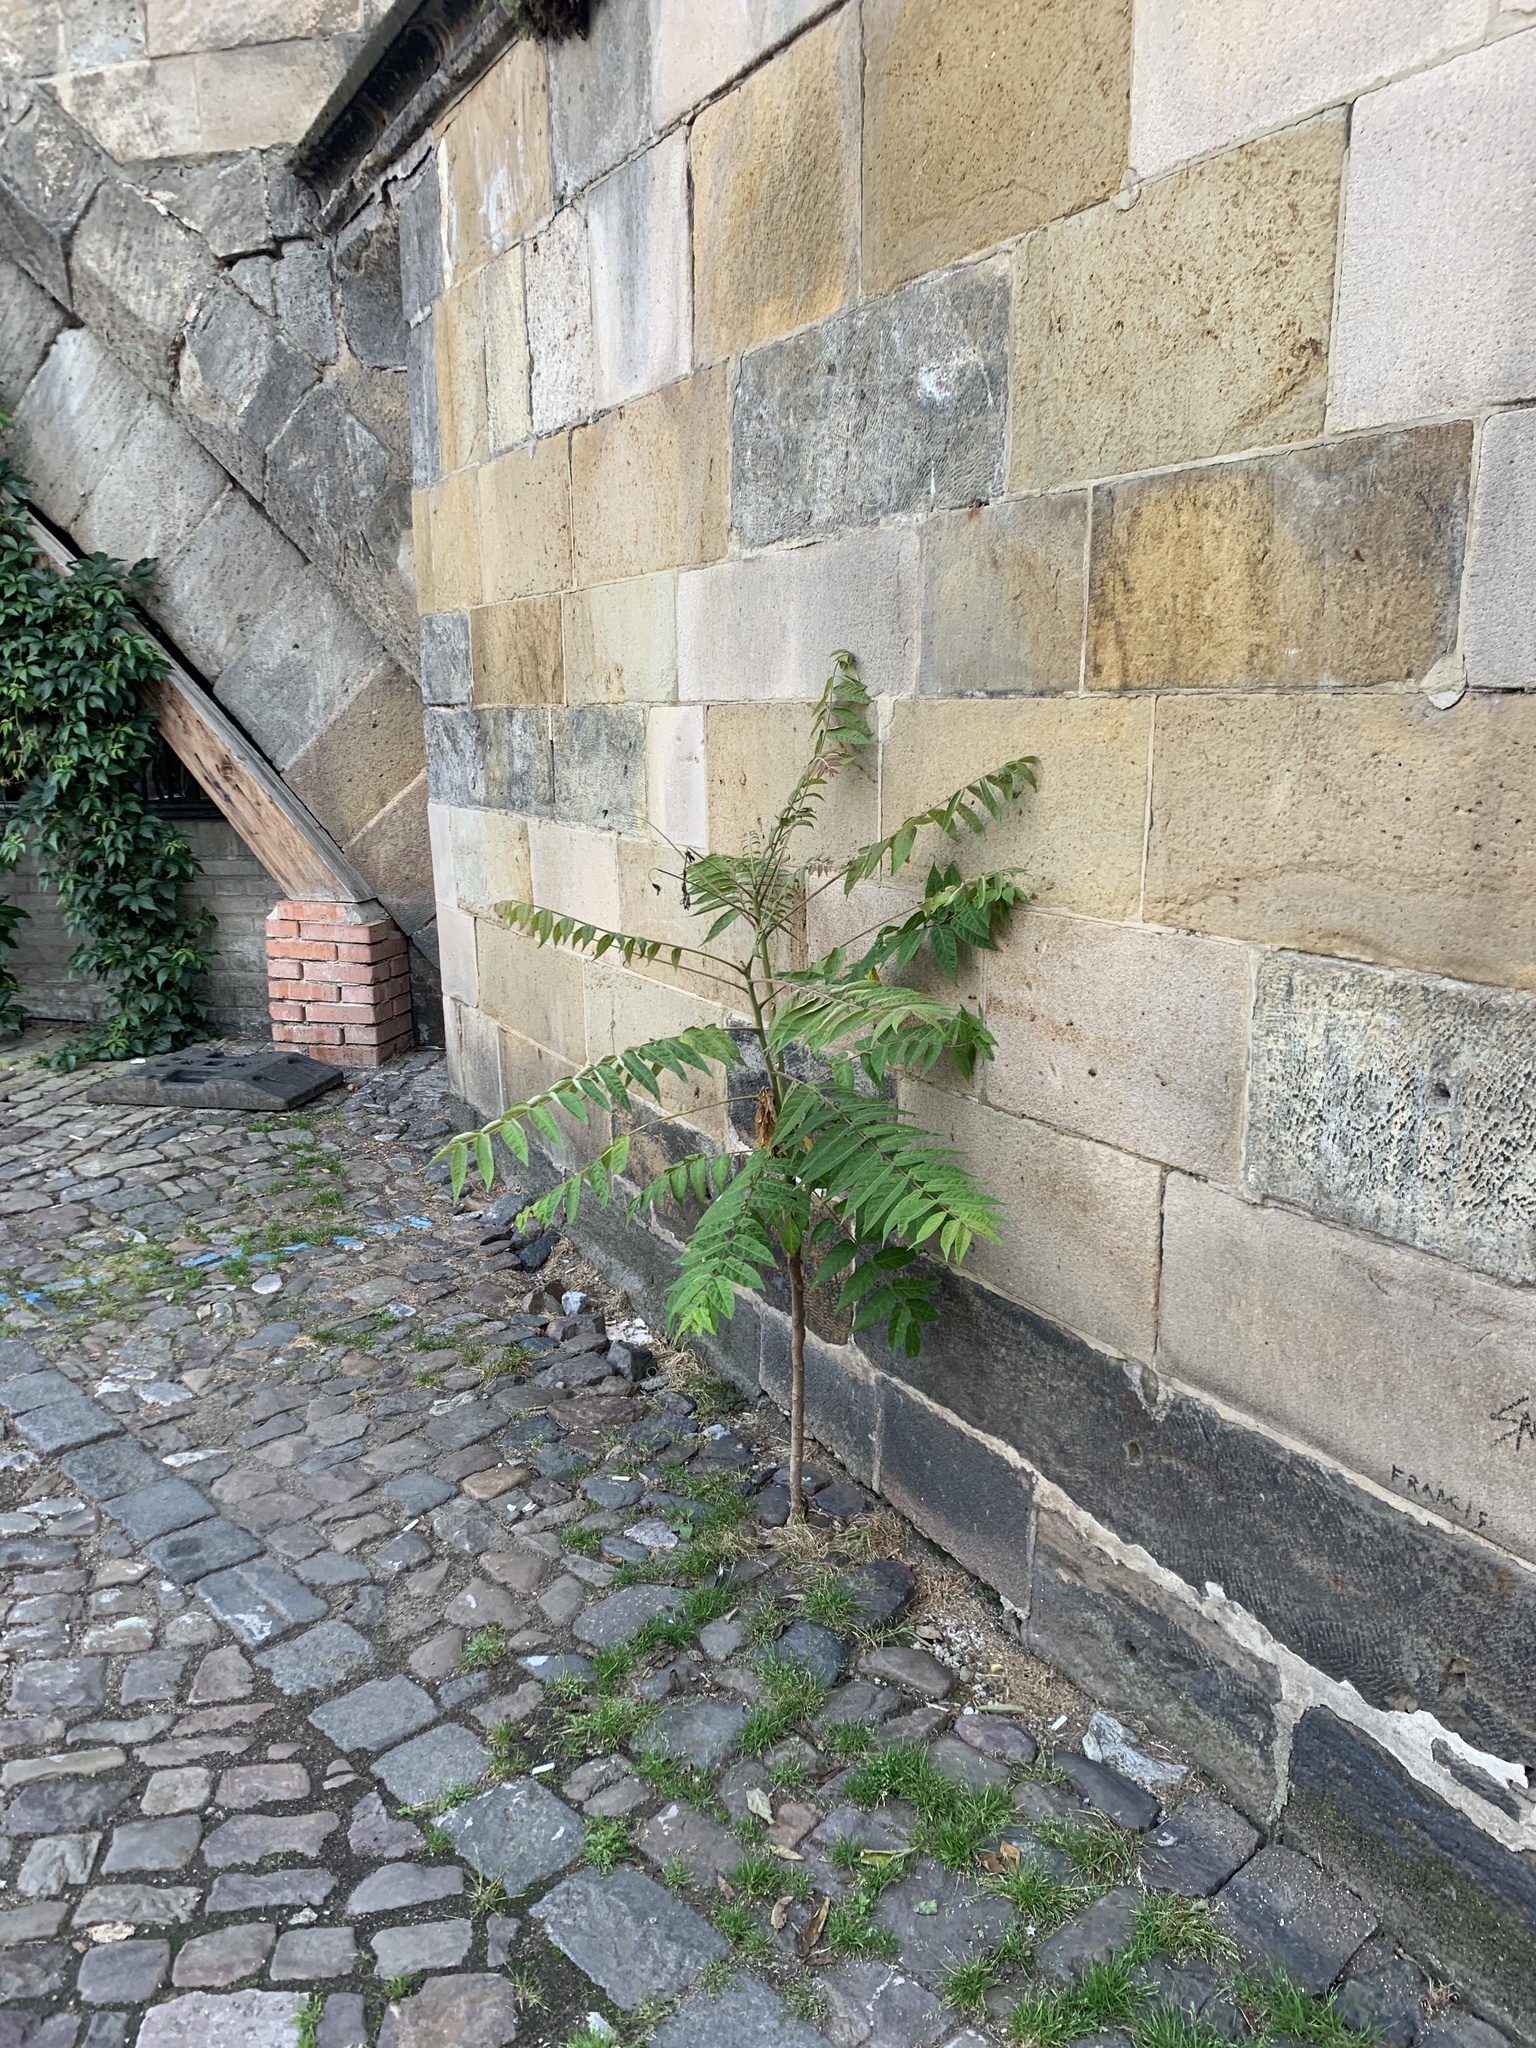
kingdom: Plantae
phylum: Tracheophyta
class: Magnoliopsida
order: Sapindales
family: Simaroubaceae
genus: Ailanthus
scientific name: Ailanthus altissima
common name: Tree-of-heaven
